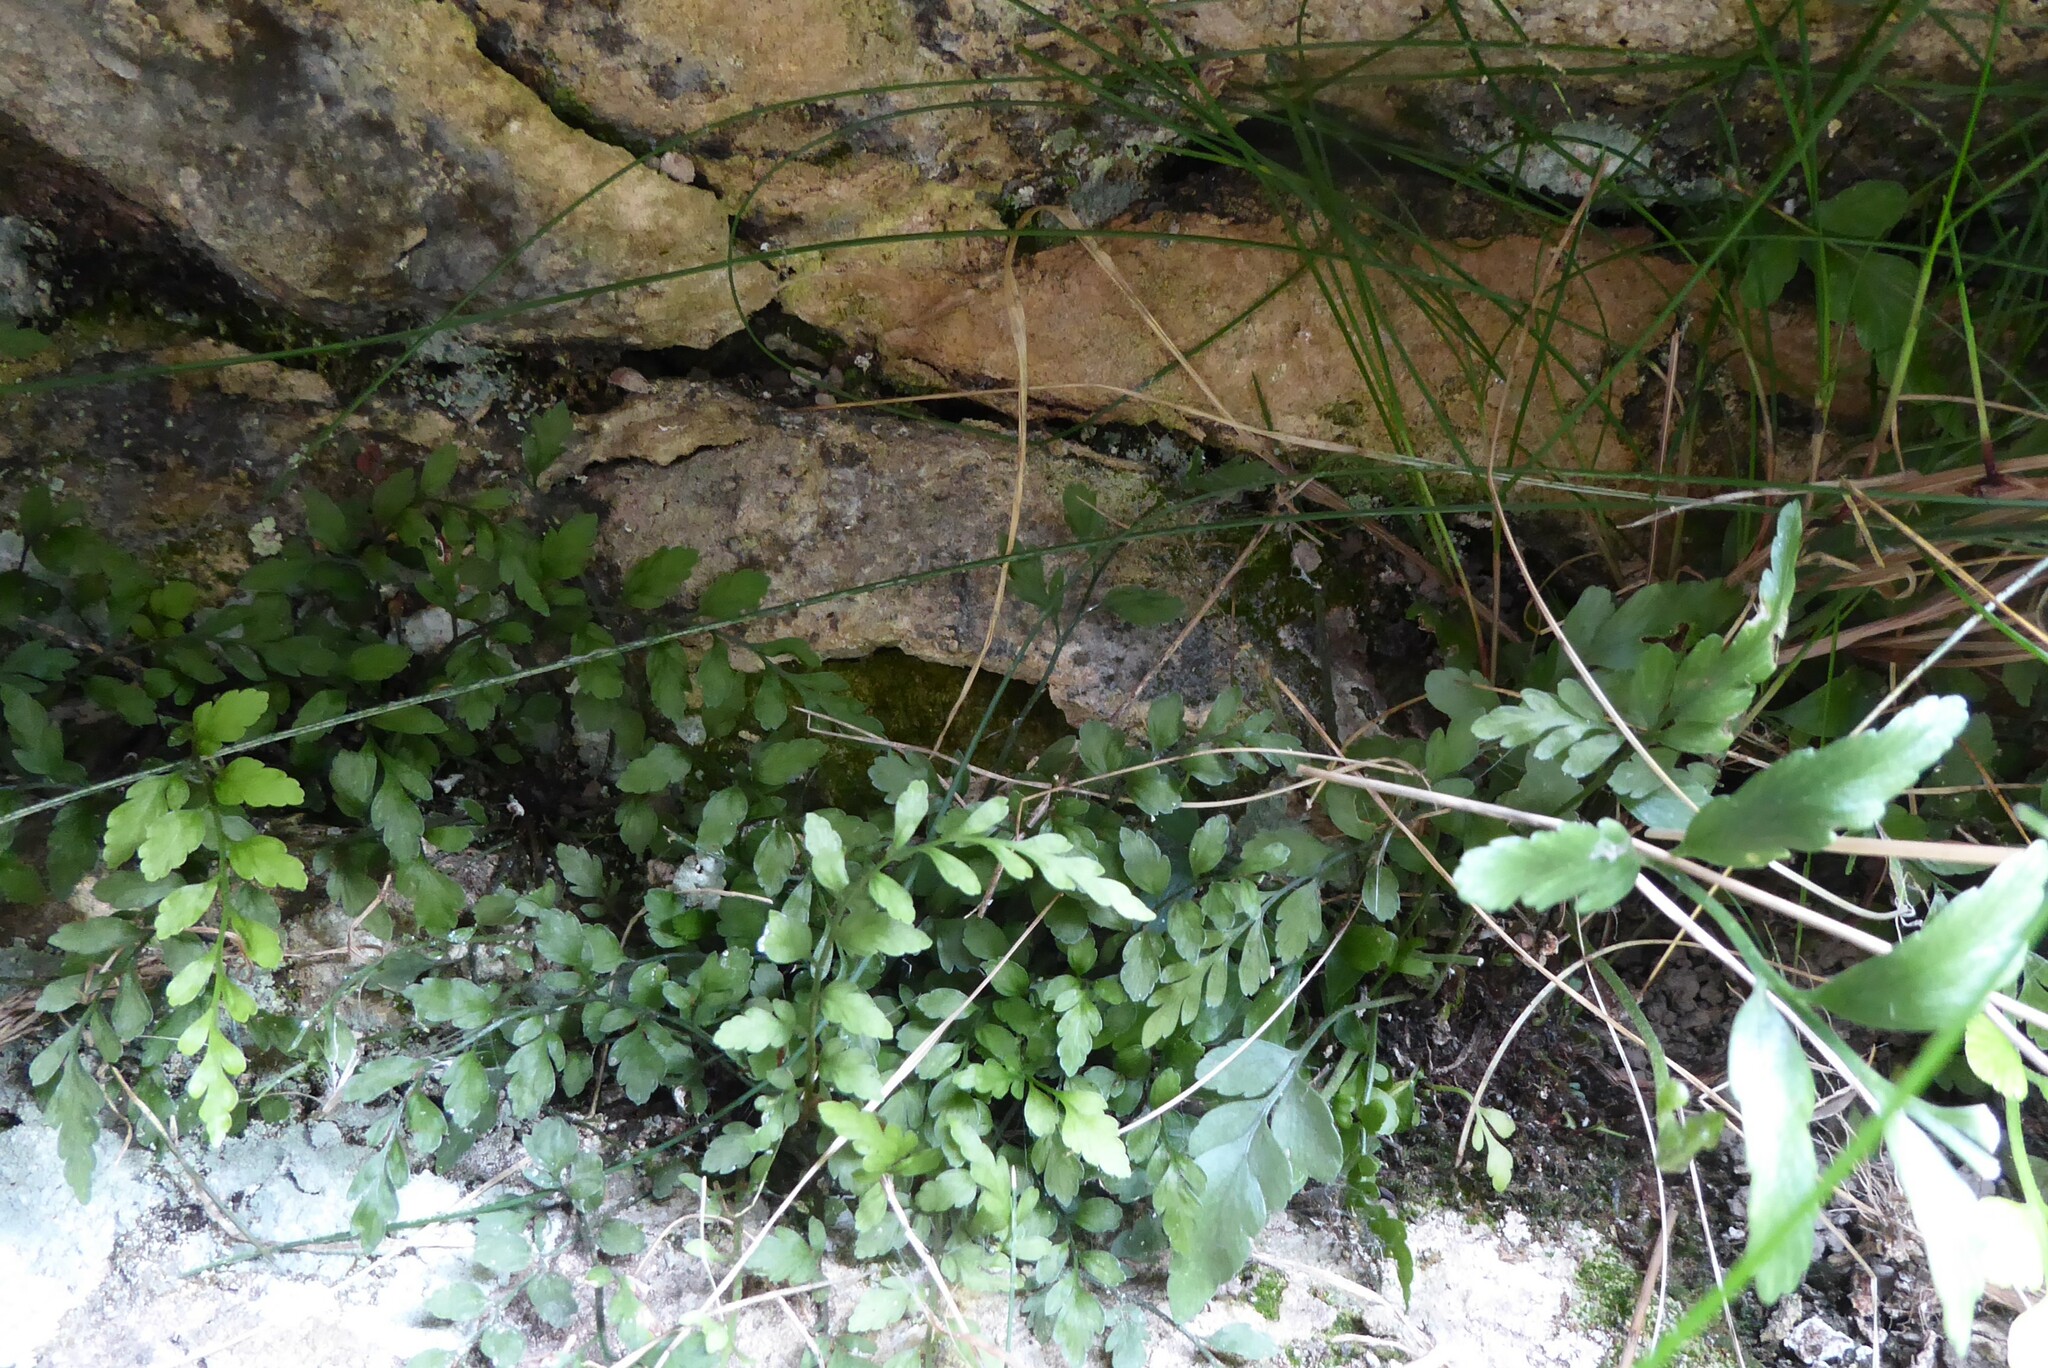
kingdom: Plantae
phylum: Tracheophyta
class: Polypodiopsida
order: Polypodiales
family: Aspleniaceae
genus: Asplenium
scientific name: Asplenium lyallii
